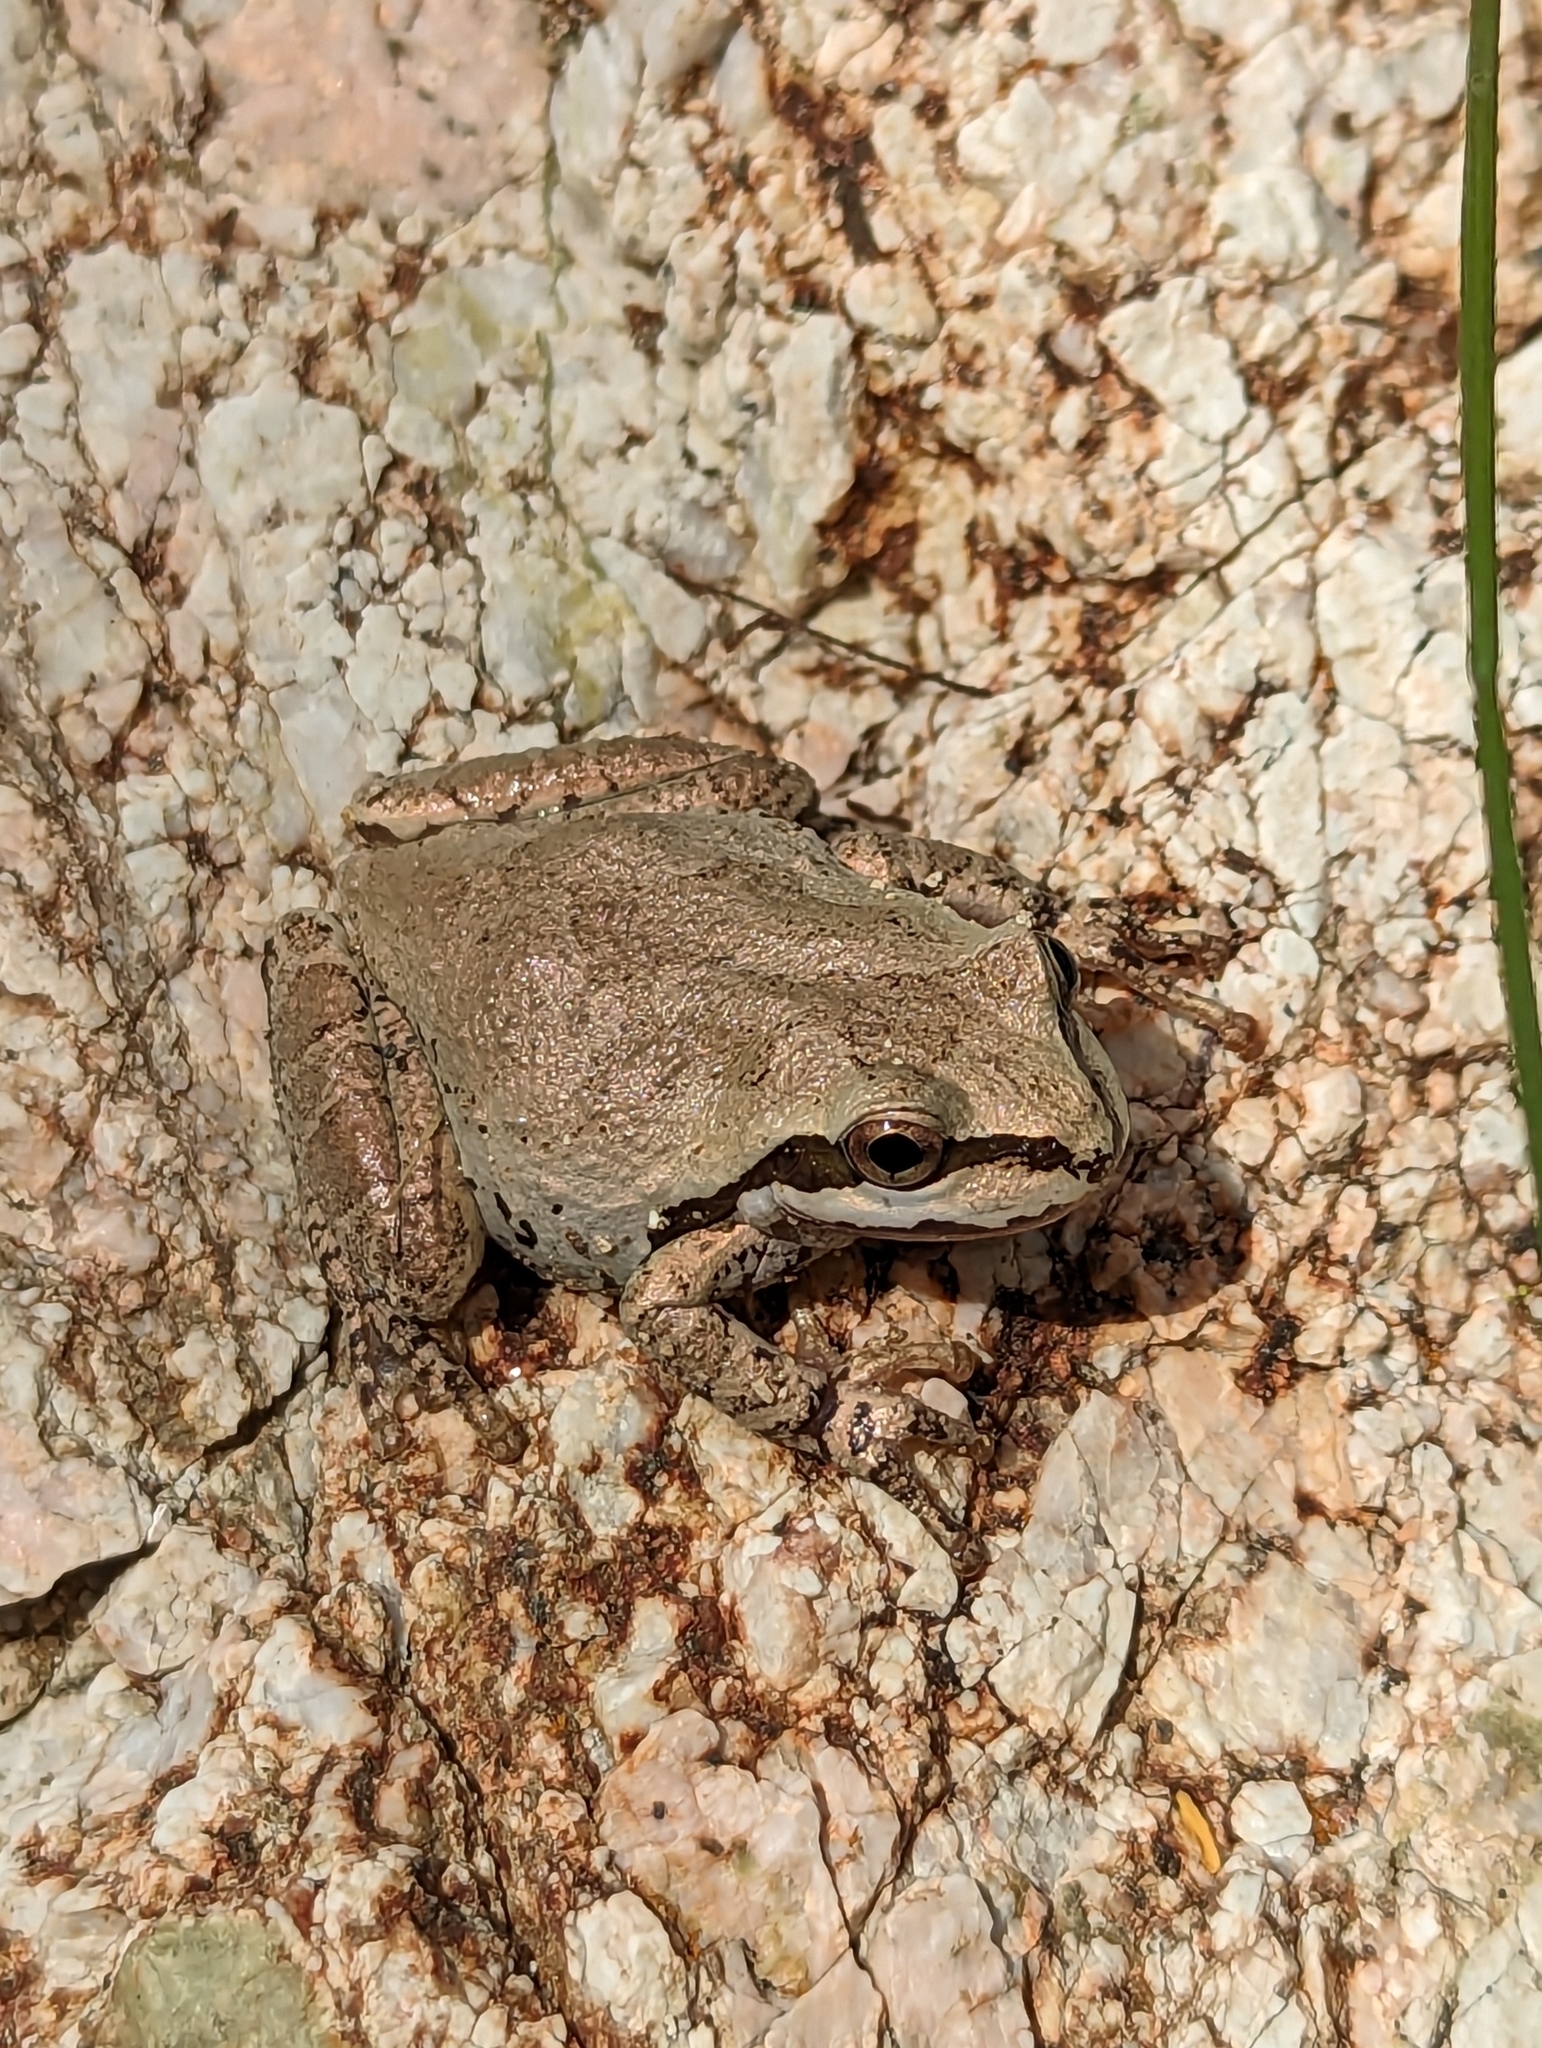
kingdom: Animalia
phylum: Chordata
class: Amphibia
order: Anura
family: Hylidae
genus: Pseudacris
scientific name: Pseudacris regilla
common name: Pacific chorus frog
